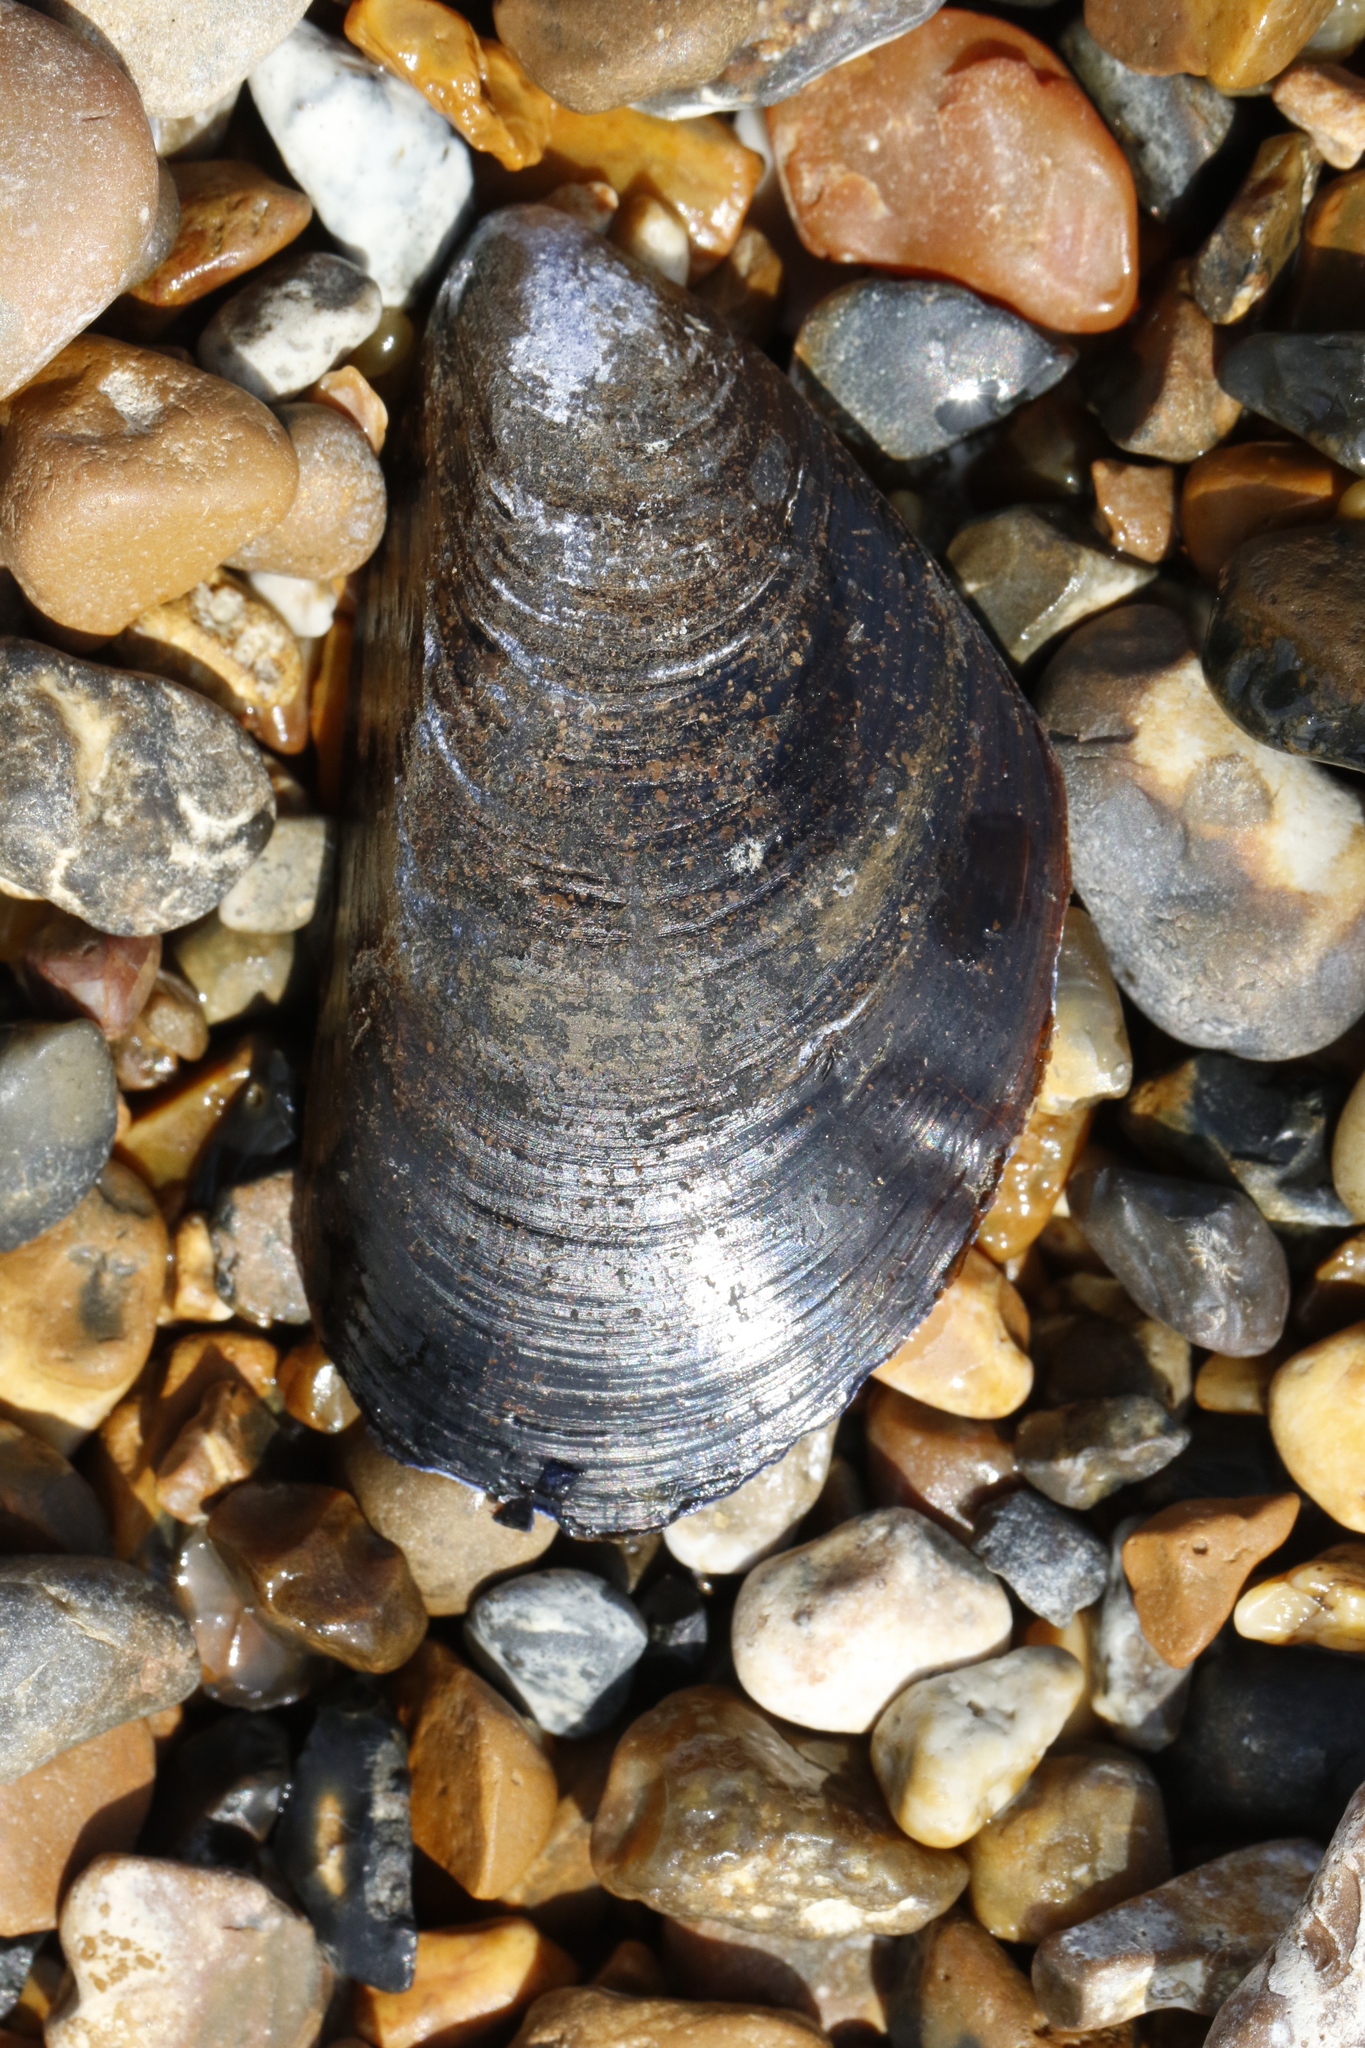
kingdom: Animalia
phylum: Mollusca
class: Bivalvia
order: Mytilida
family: Mytilidae
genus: Mytilus
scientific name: Mytilus edulis
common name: Blue mussel
